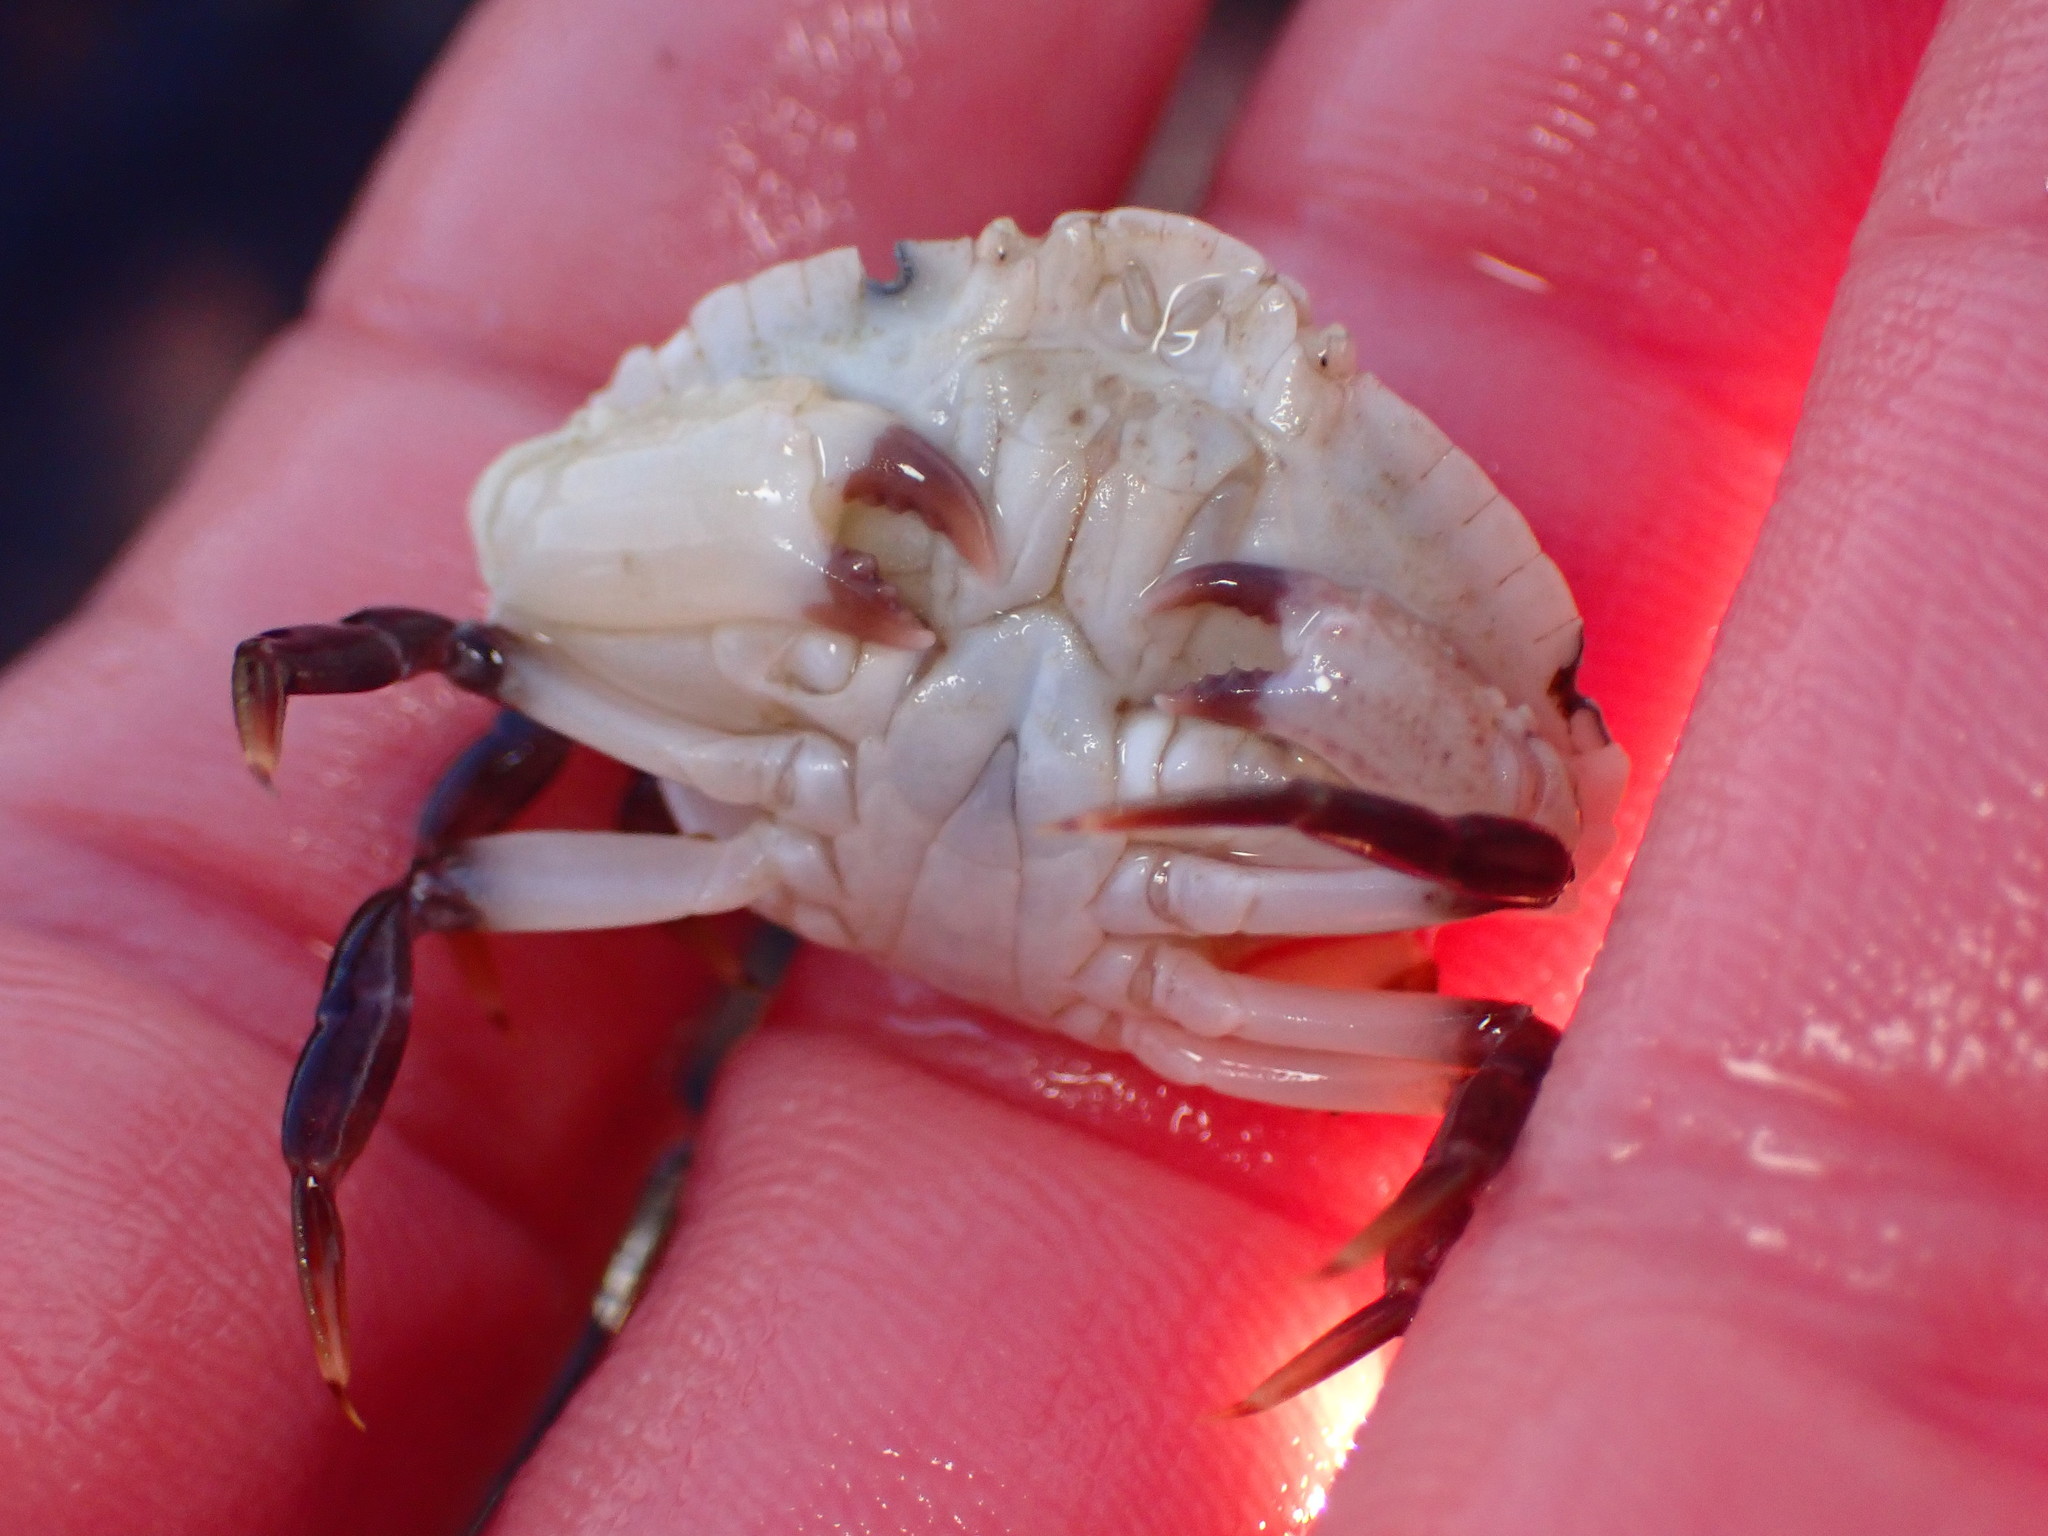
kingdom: Animalia
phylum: Arthropoda
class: Malacostraca
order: Decapoda
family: Cancridae
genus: Cancer
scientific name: Cancer productus
